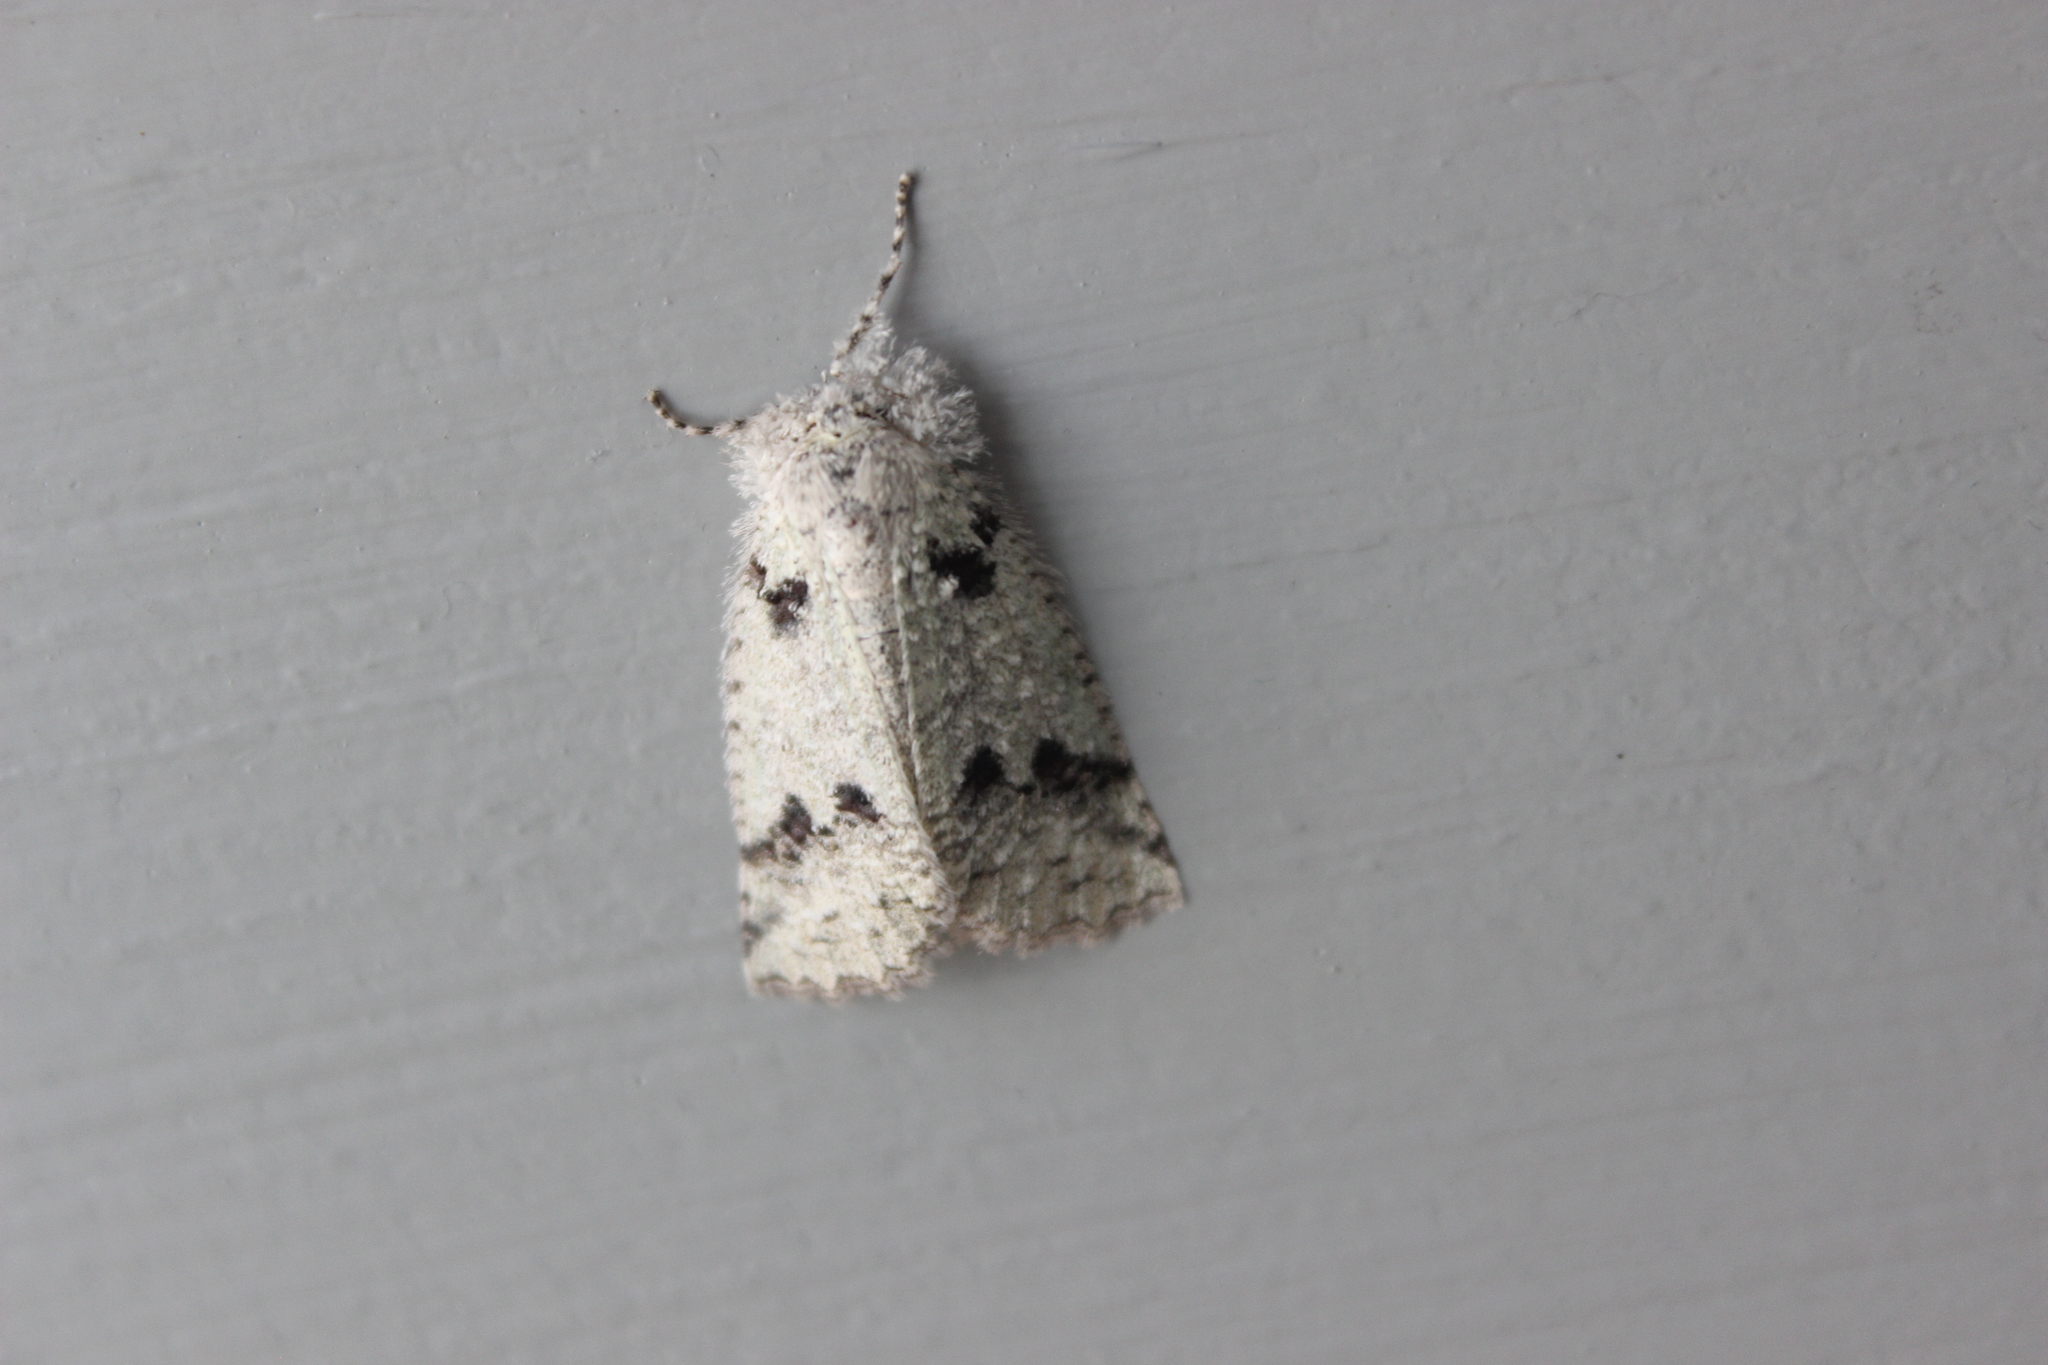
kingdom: Animalia
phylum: Arthropoda
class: Insecta
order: Lepidoptera
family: Geometridae
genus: Declana
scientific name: Declana floccosa
